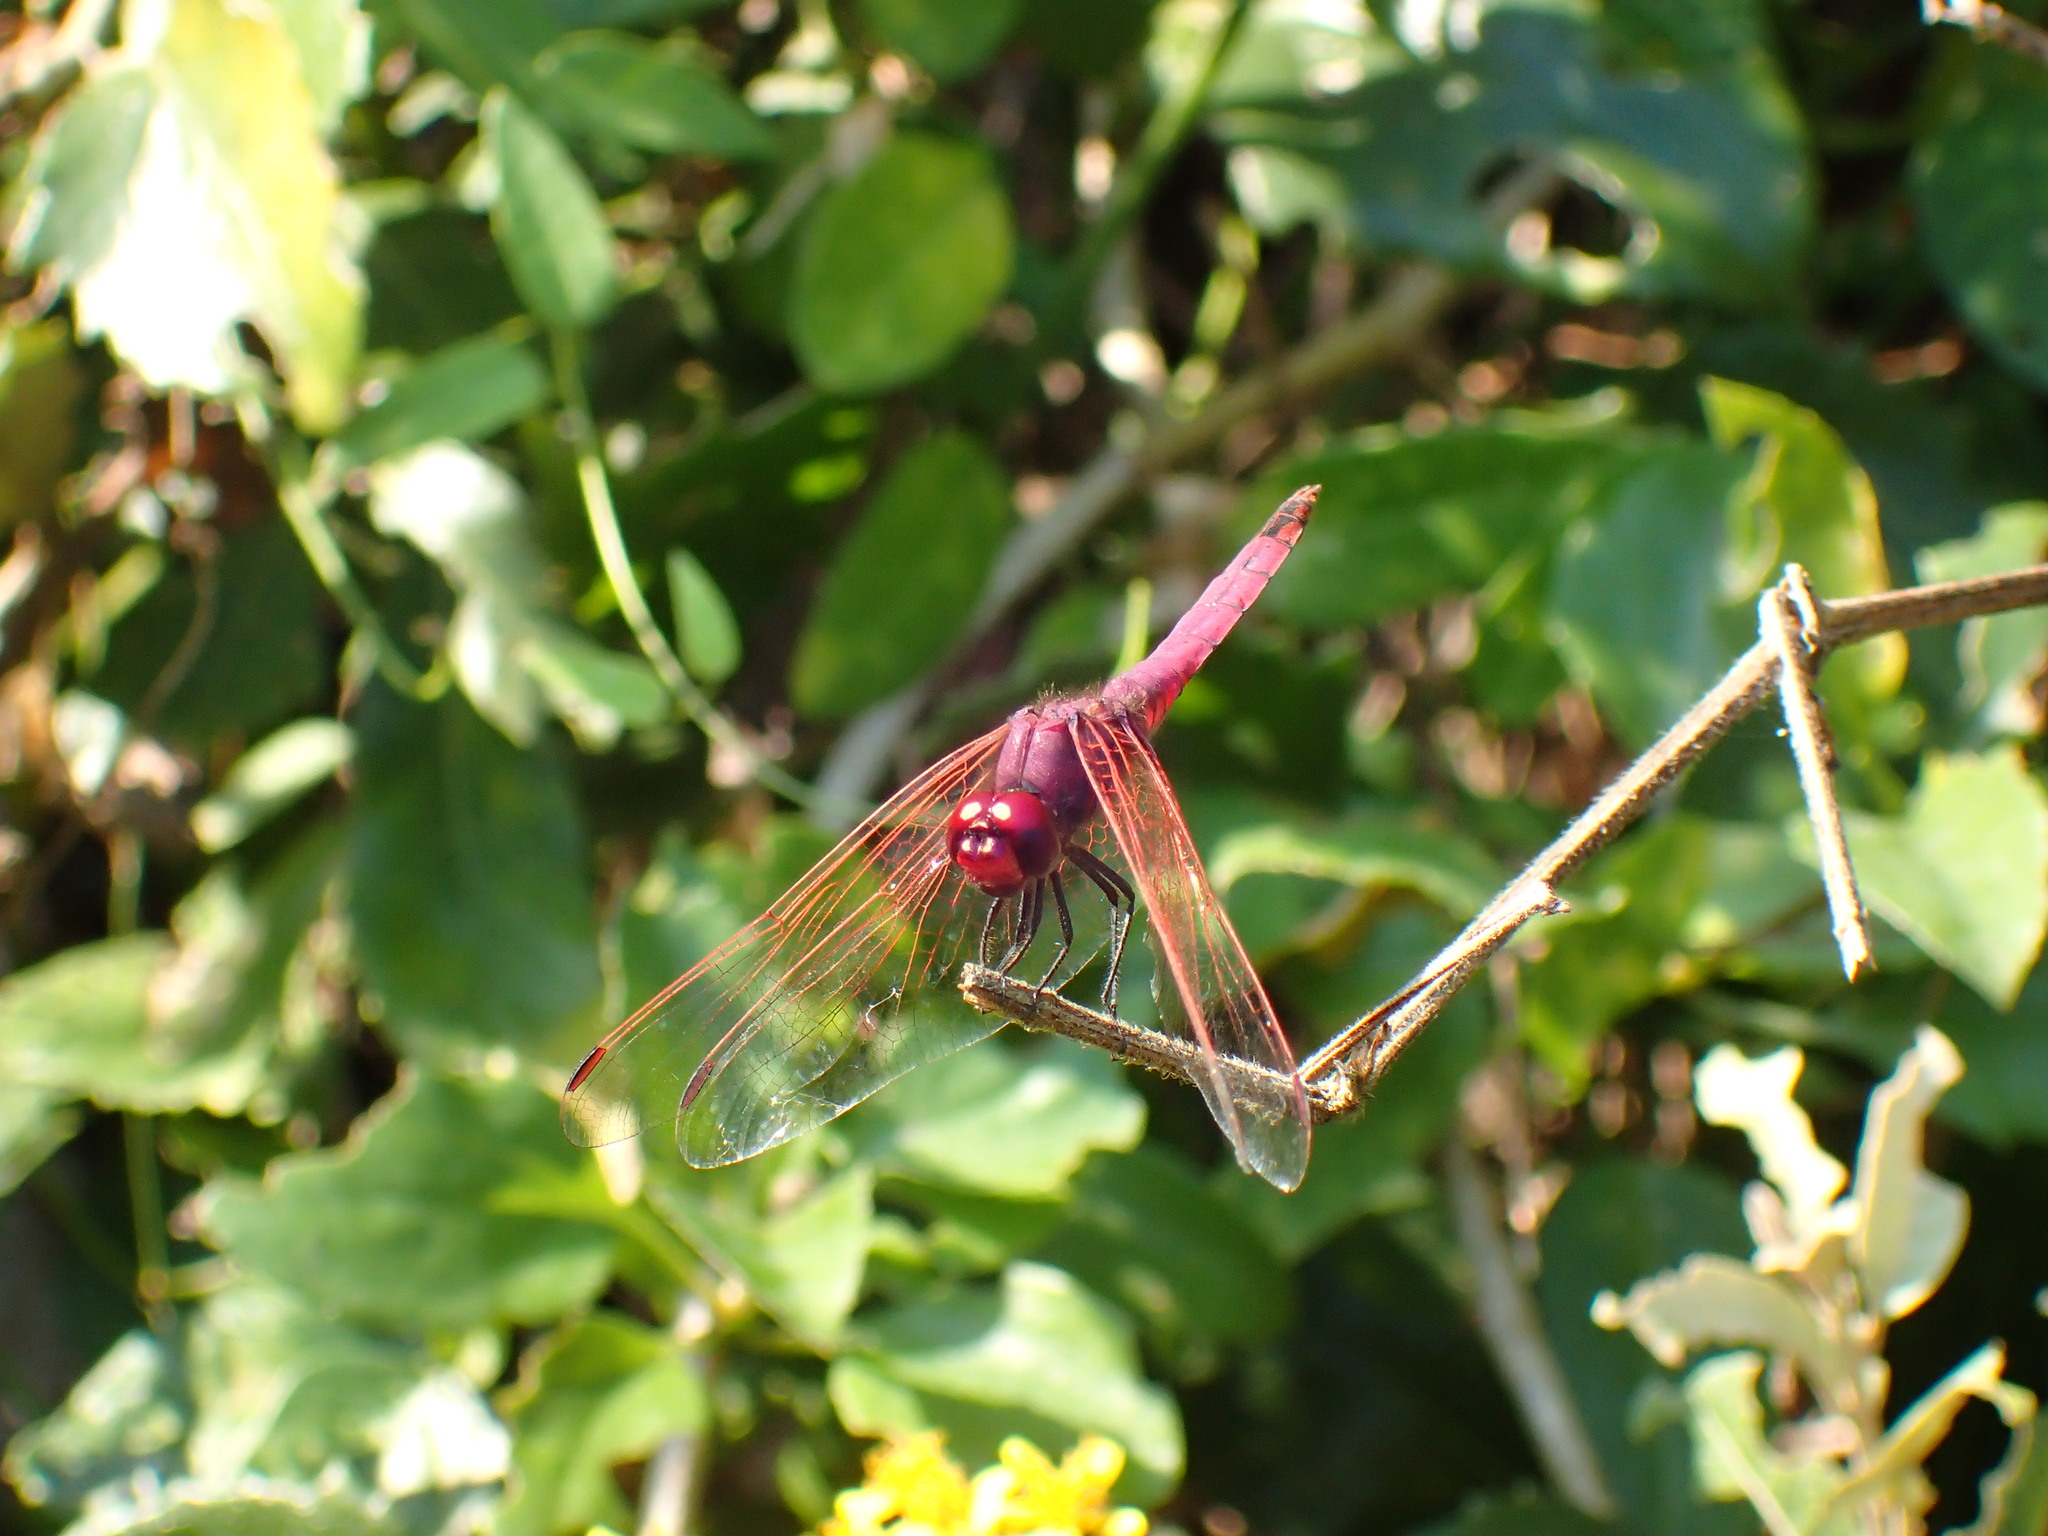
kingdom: Animalia
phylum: Arthropoda
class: Insecta
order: Odonata
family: Libellulidae
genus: Trithemis
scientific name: Trithemis annulata
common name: Violet dropwing
